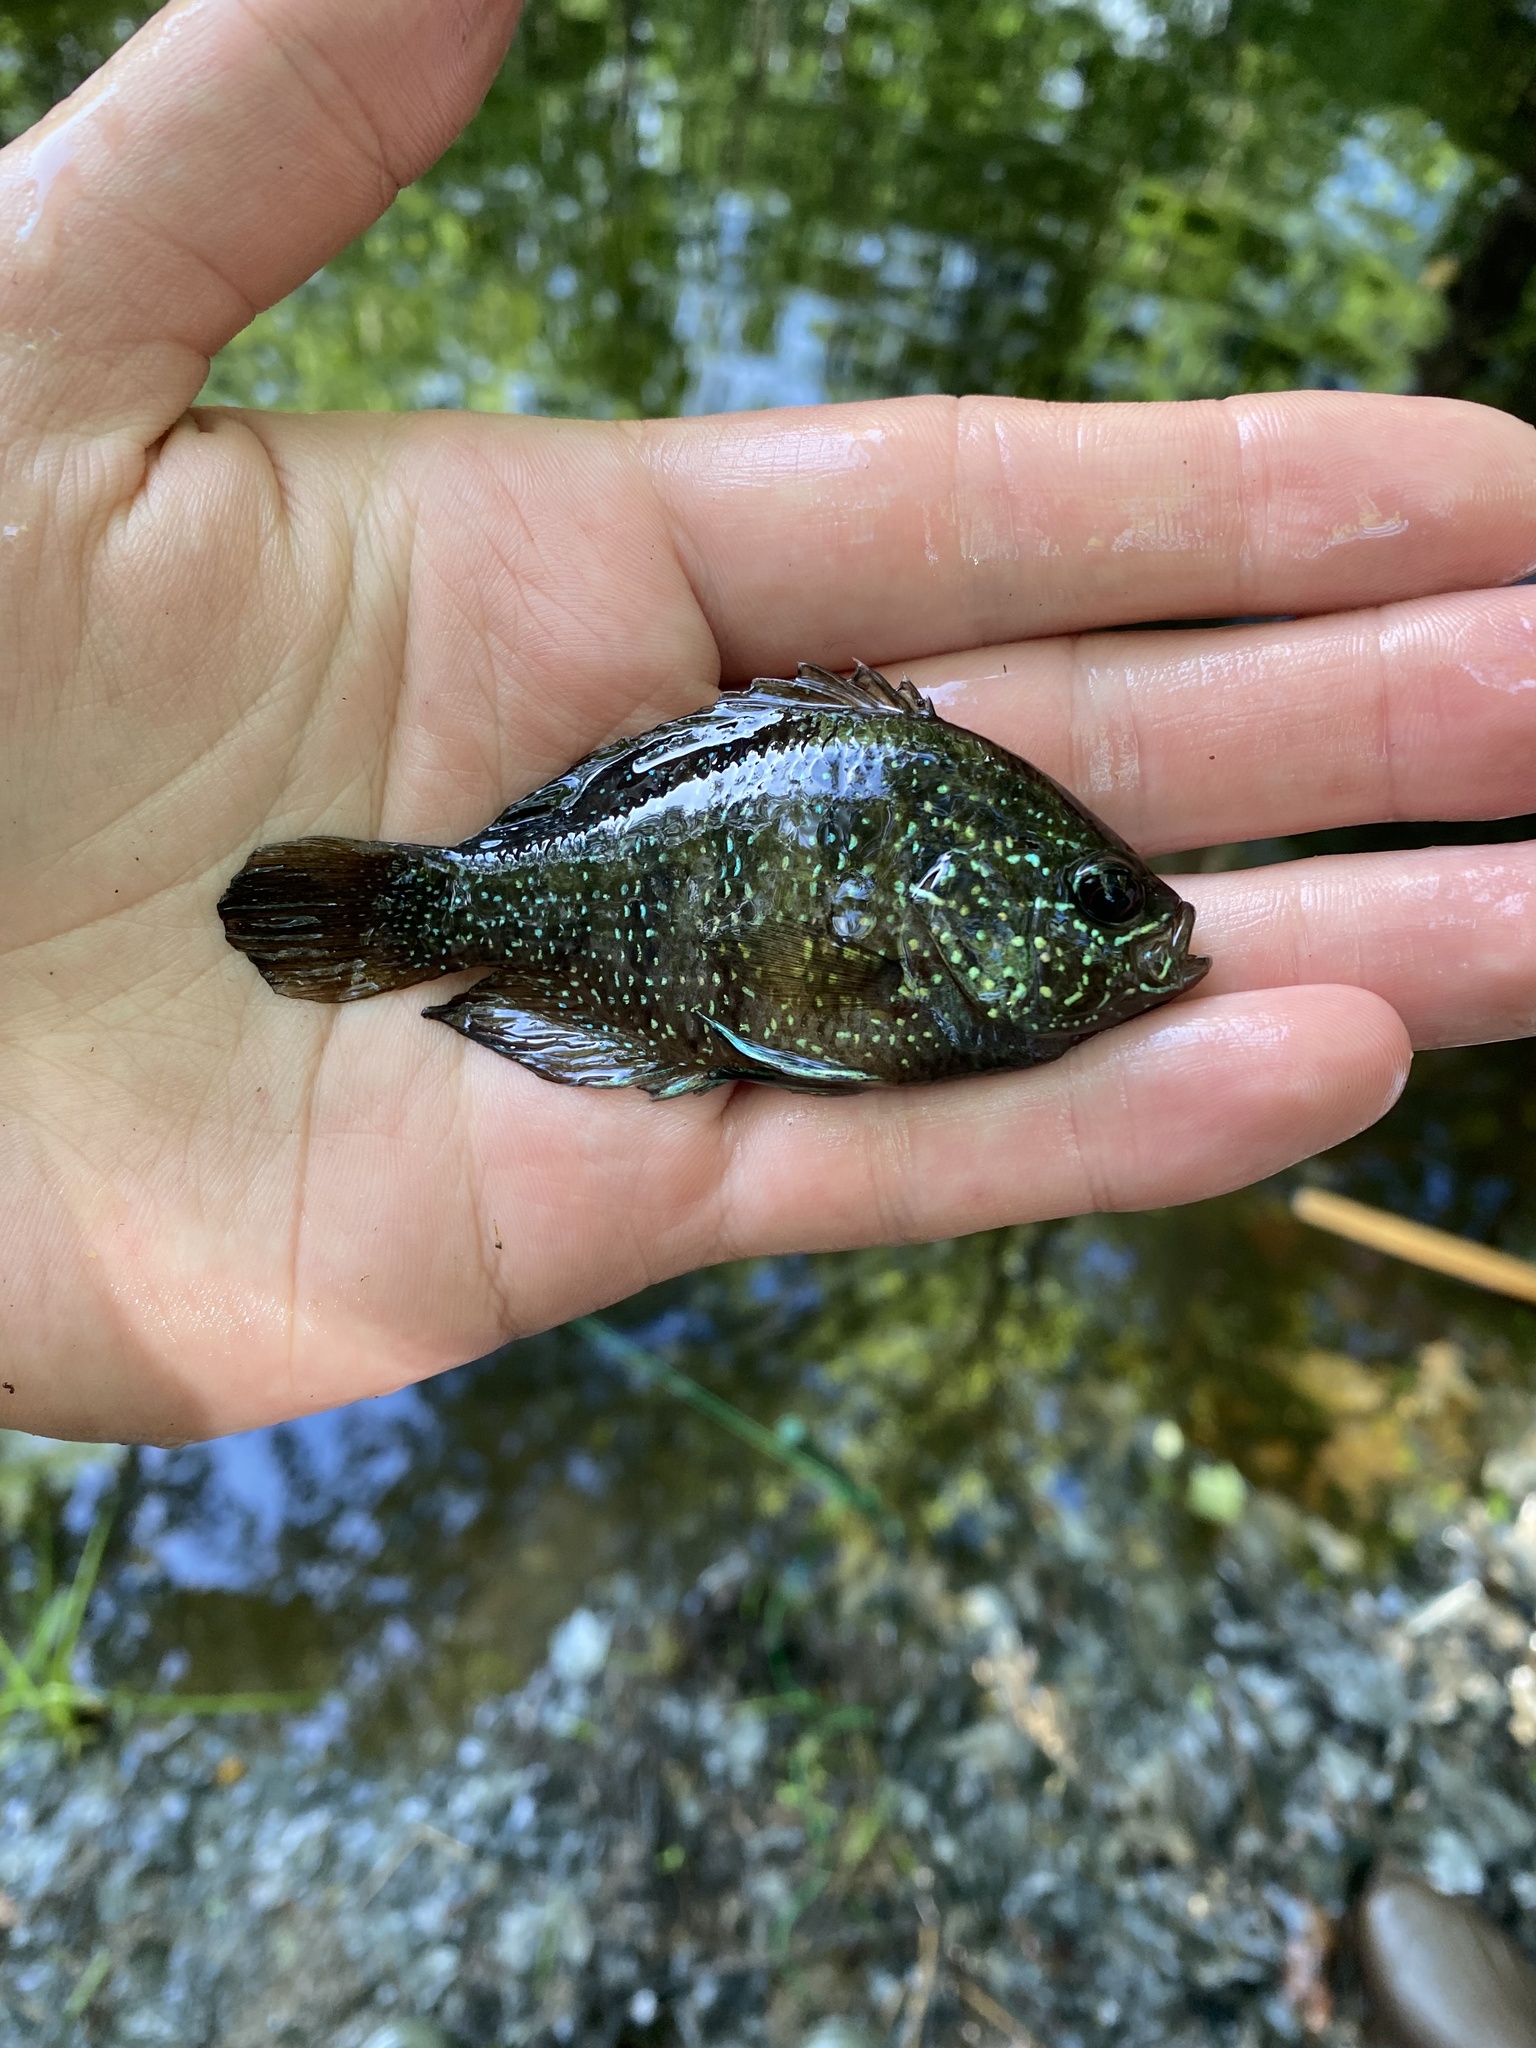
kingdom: Animalia
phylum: Chordata
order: Perciformes
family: Centrarchidae
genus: Enneacanthus
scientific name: Enneacanthus obesus
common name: Banded sunfish
